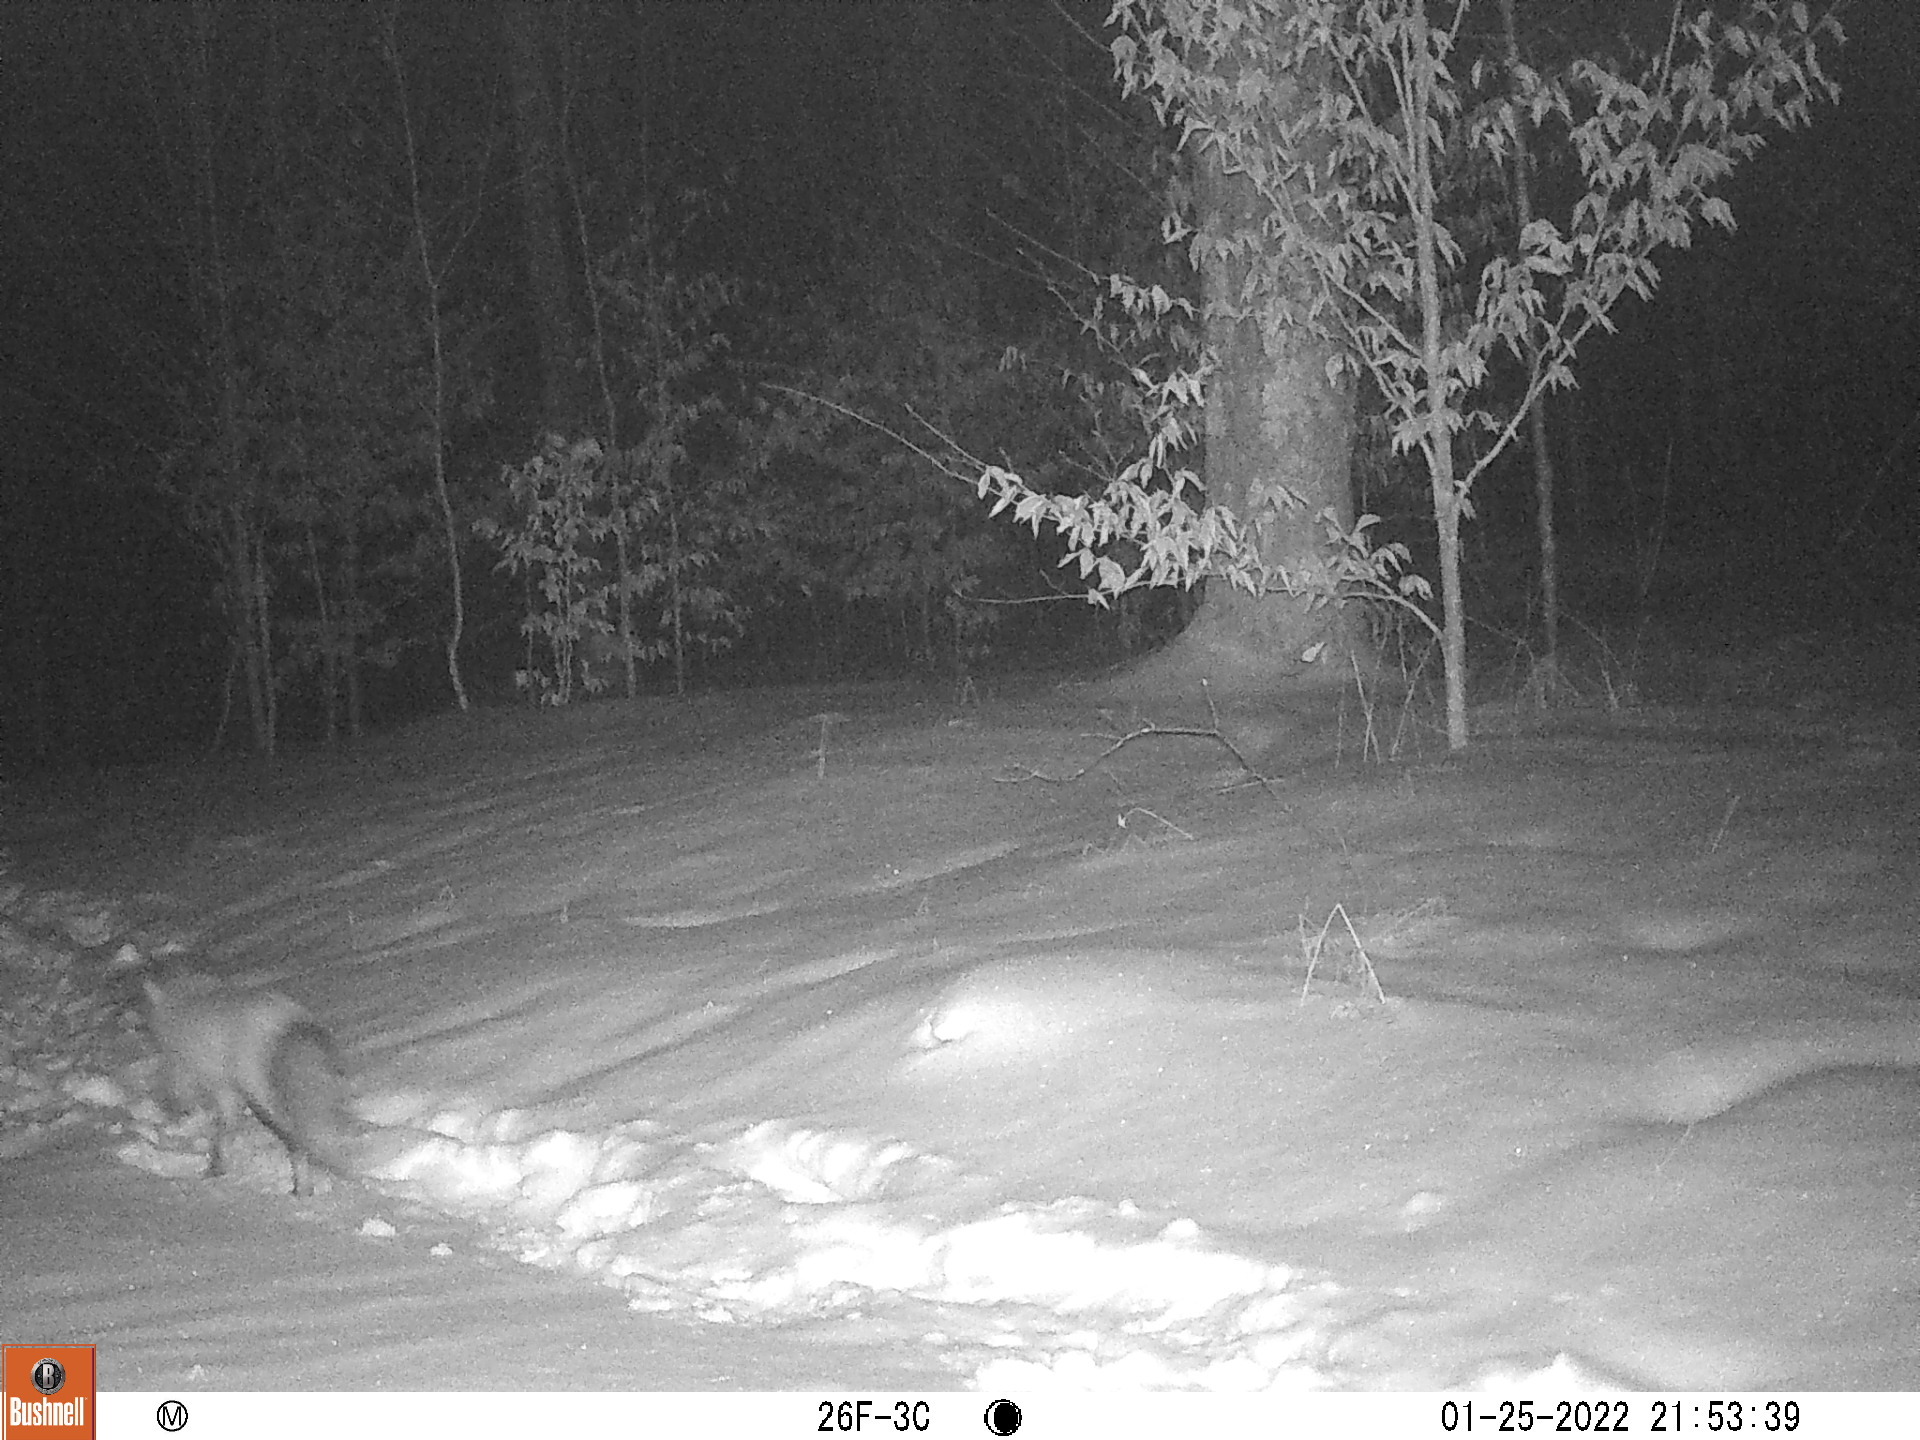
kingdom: Animalia
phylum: Chordata
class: Mammalia
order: Carnivora
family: Canidae
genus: Vulpes
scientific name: Vulpes vulpes
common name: Red fox
